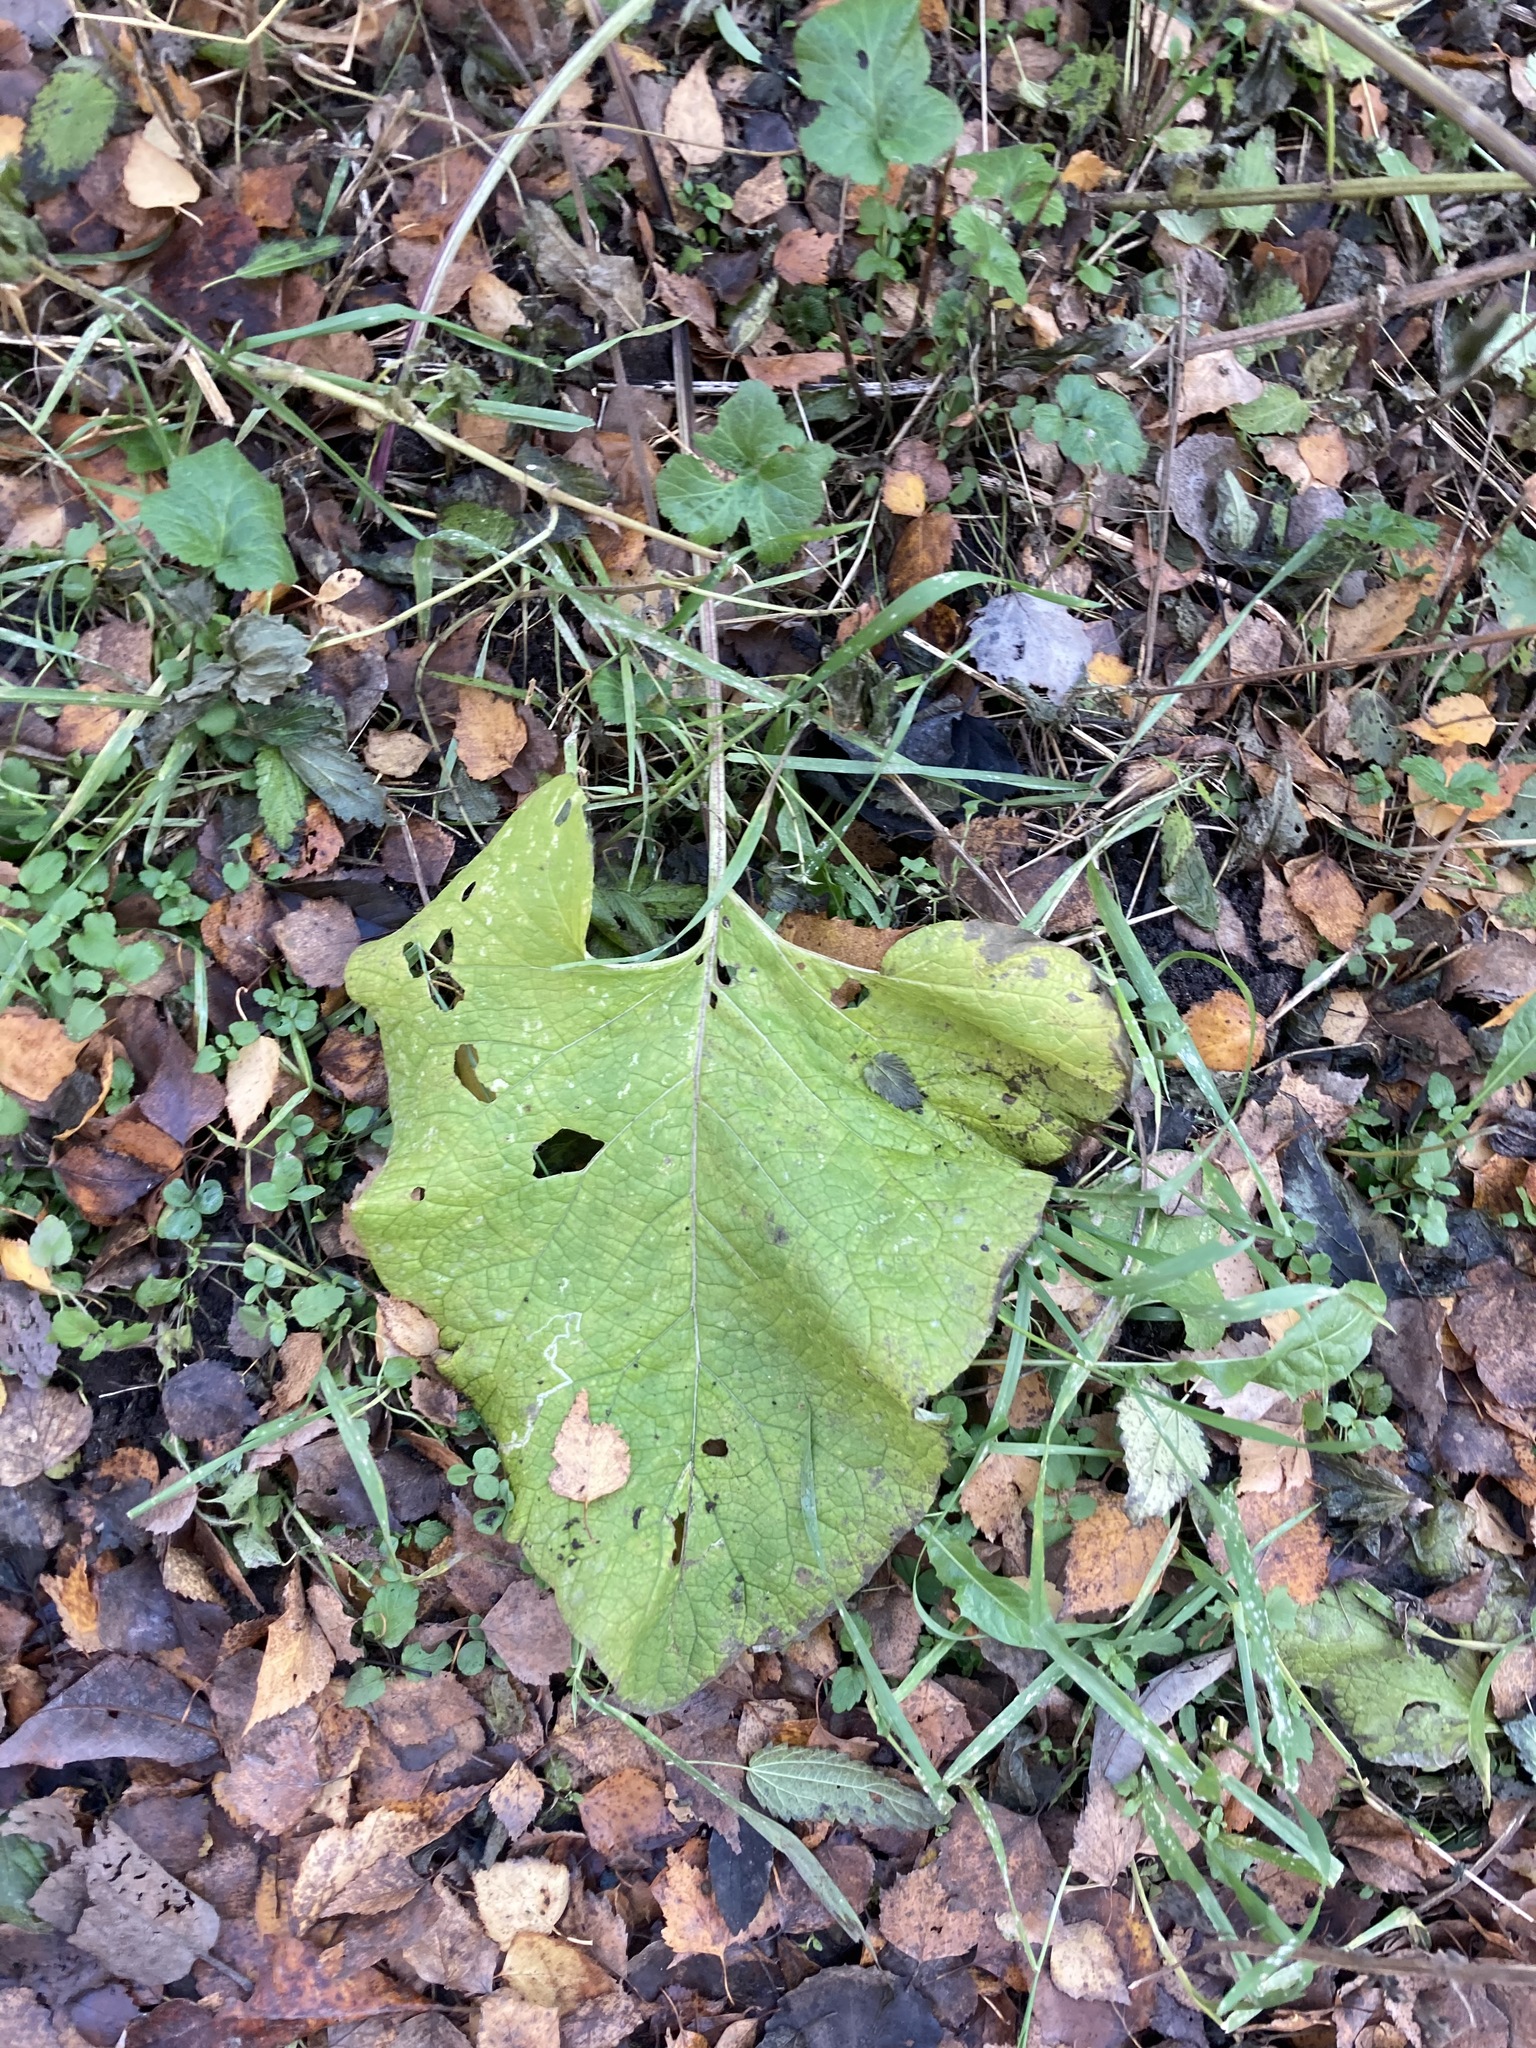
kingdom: Plantae
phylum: Tracheophyta
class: Magnoliopsida
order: Asterales
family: Asteraceae
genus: Arctium
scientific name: Arctium
